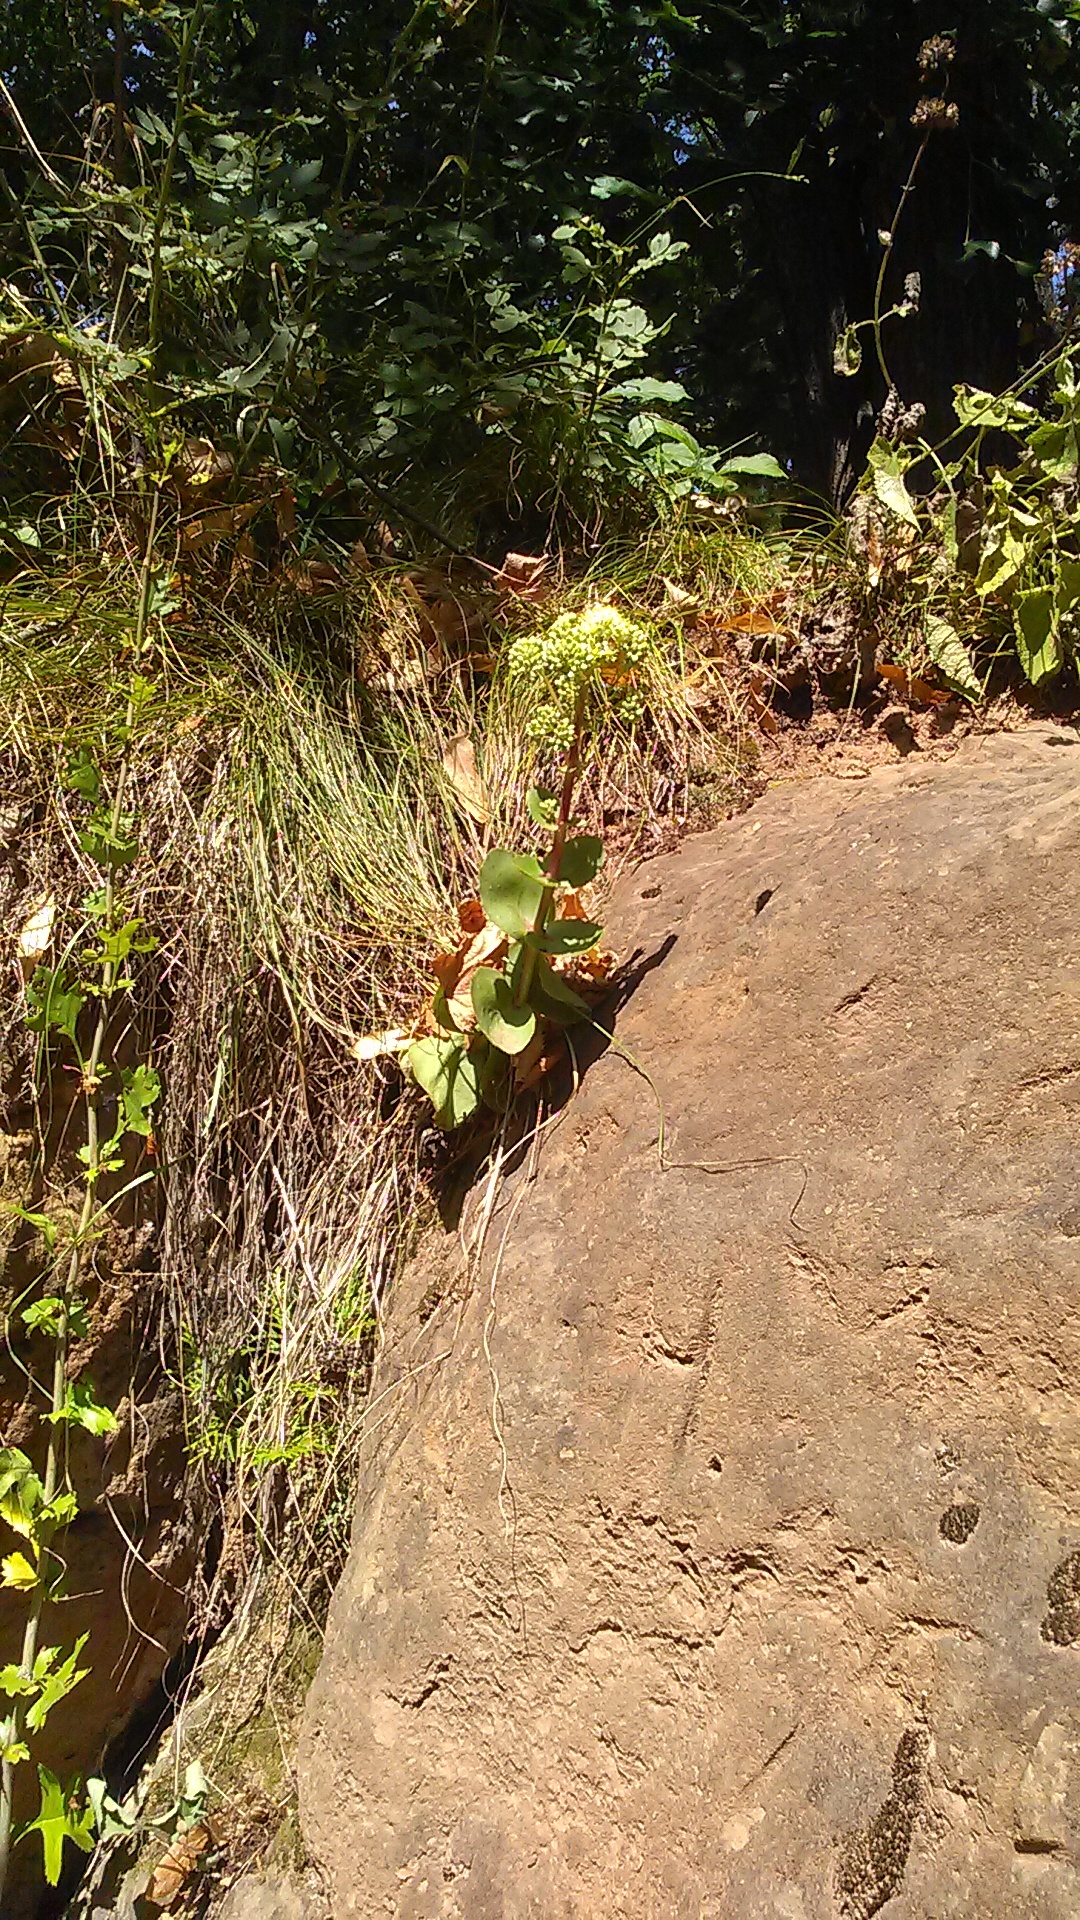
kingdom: Plantae
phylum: Tracheophyta
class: Magnoliopsida
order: Saxifragales
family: Crassulaceae
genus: Hylotelephium
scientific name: Hylotelephium maximum
